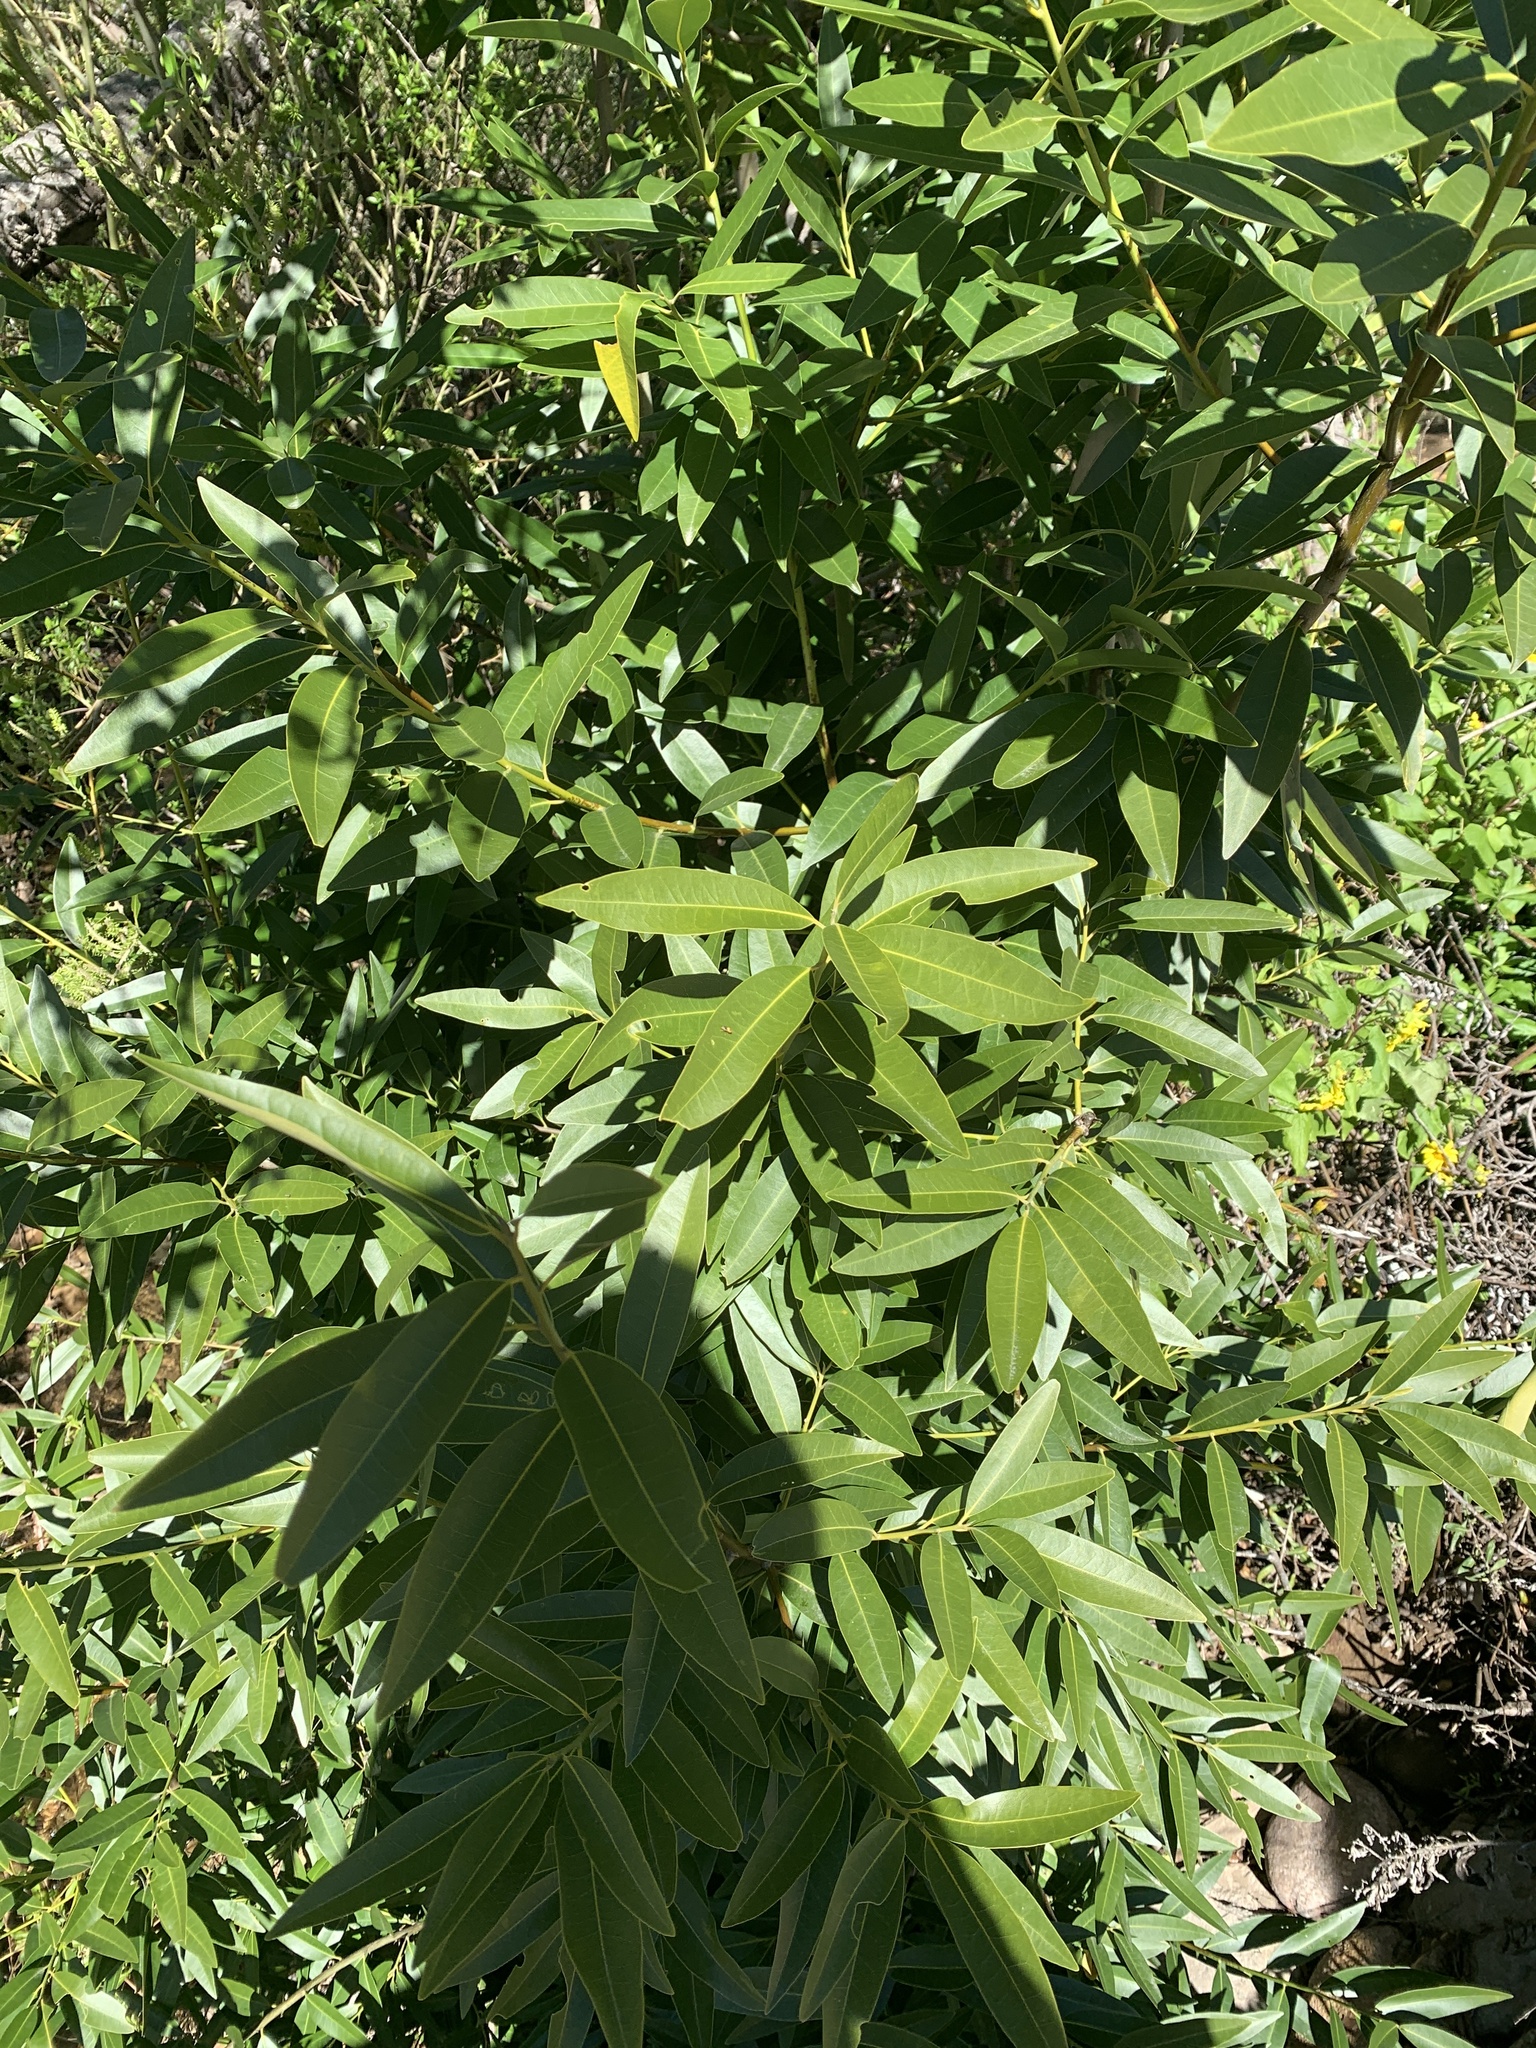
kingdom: Plantae
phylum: Tracheophyta
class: Magnoliopsida
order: Laurales
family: Lauraceae
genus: Umbellularia
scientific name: Umbellularia californica
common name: California bay
